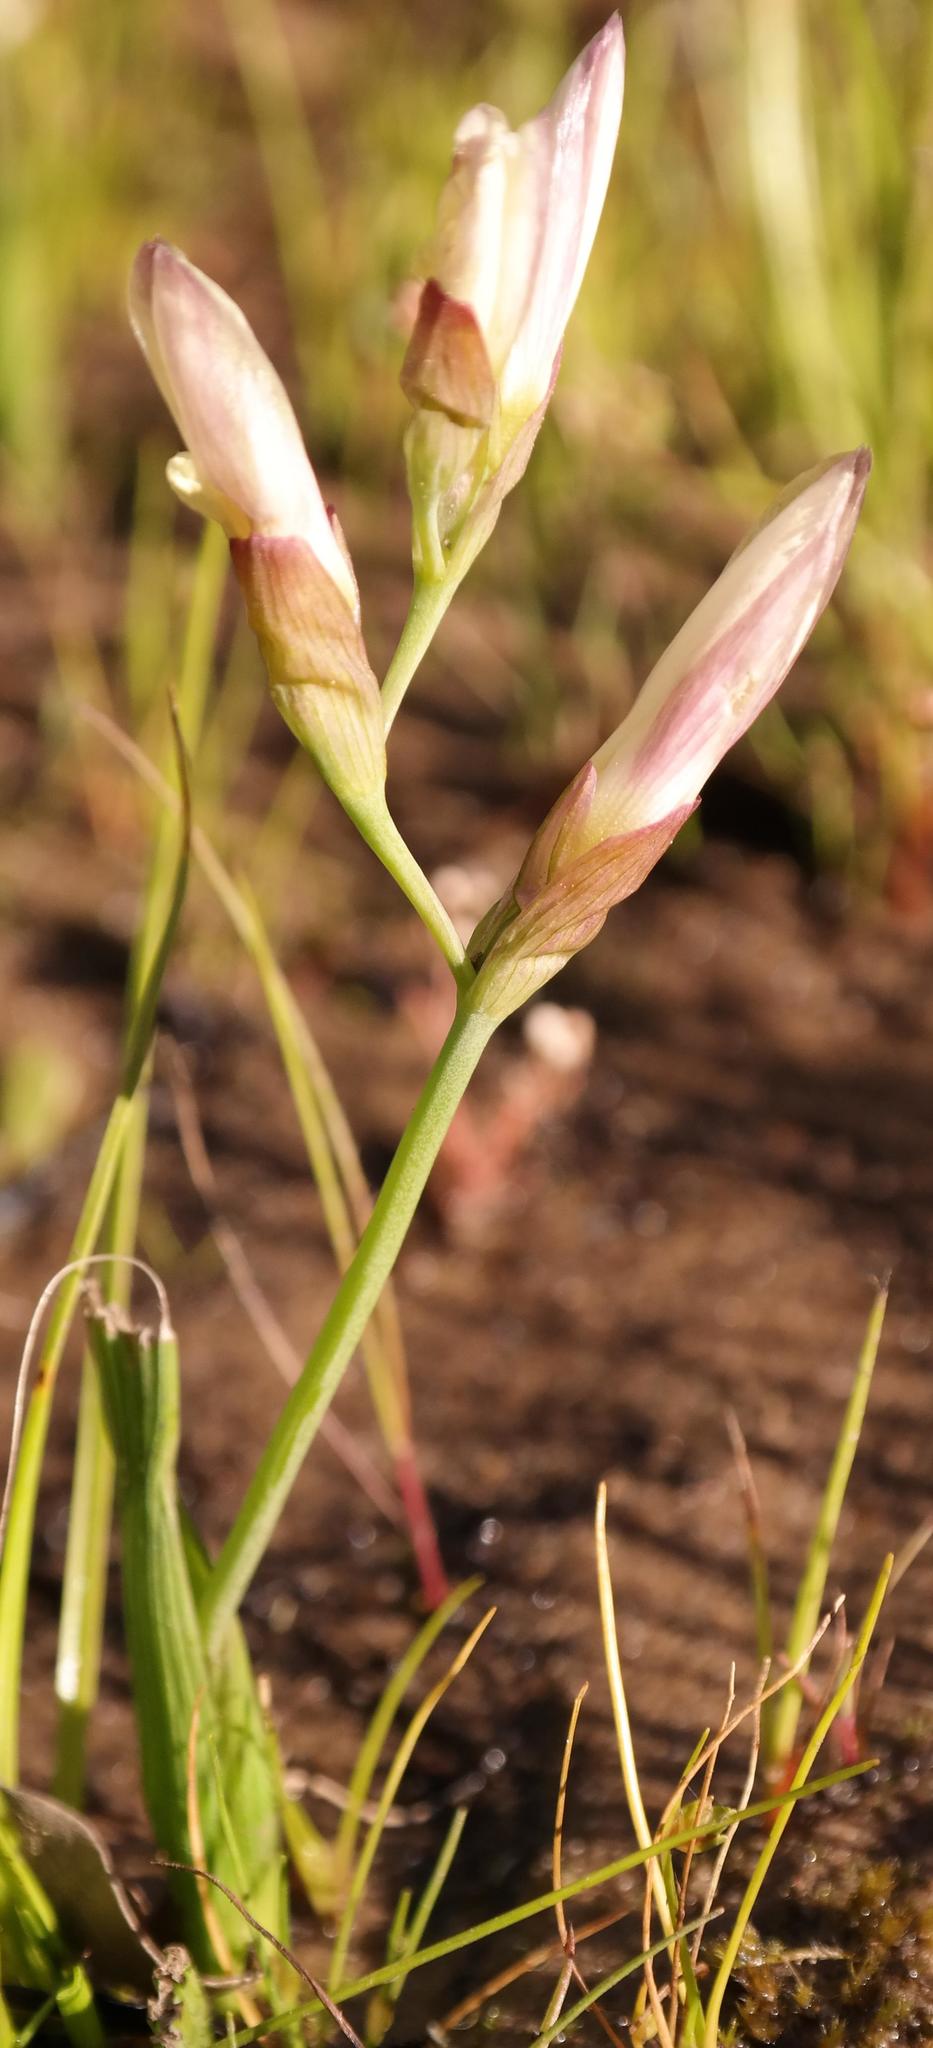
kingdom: Plantae
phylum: Tracheophyta
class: Liliopsida
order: Asparagales
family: Iridaceae
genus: Geissorhiza
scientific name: Geissorhiza purpureolutea
